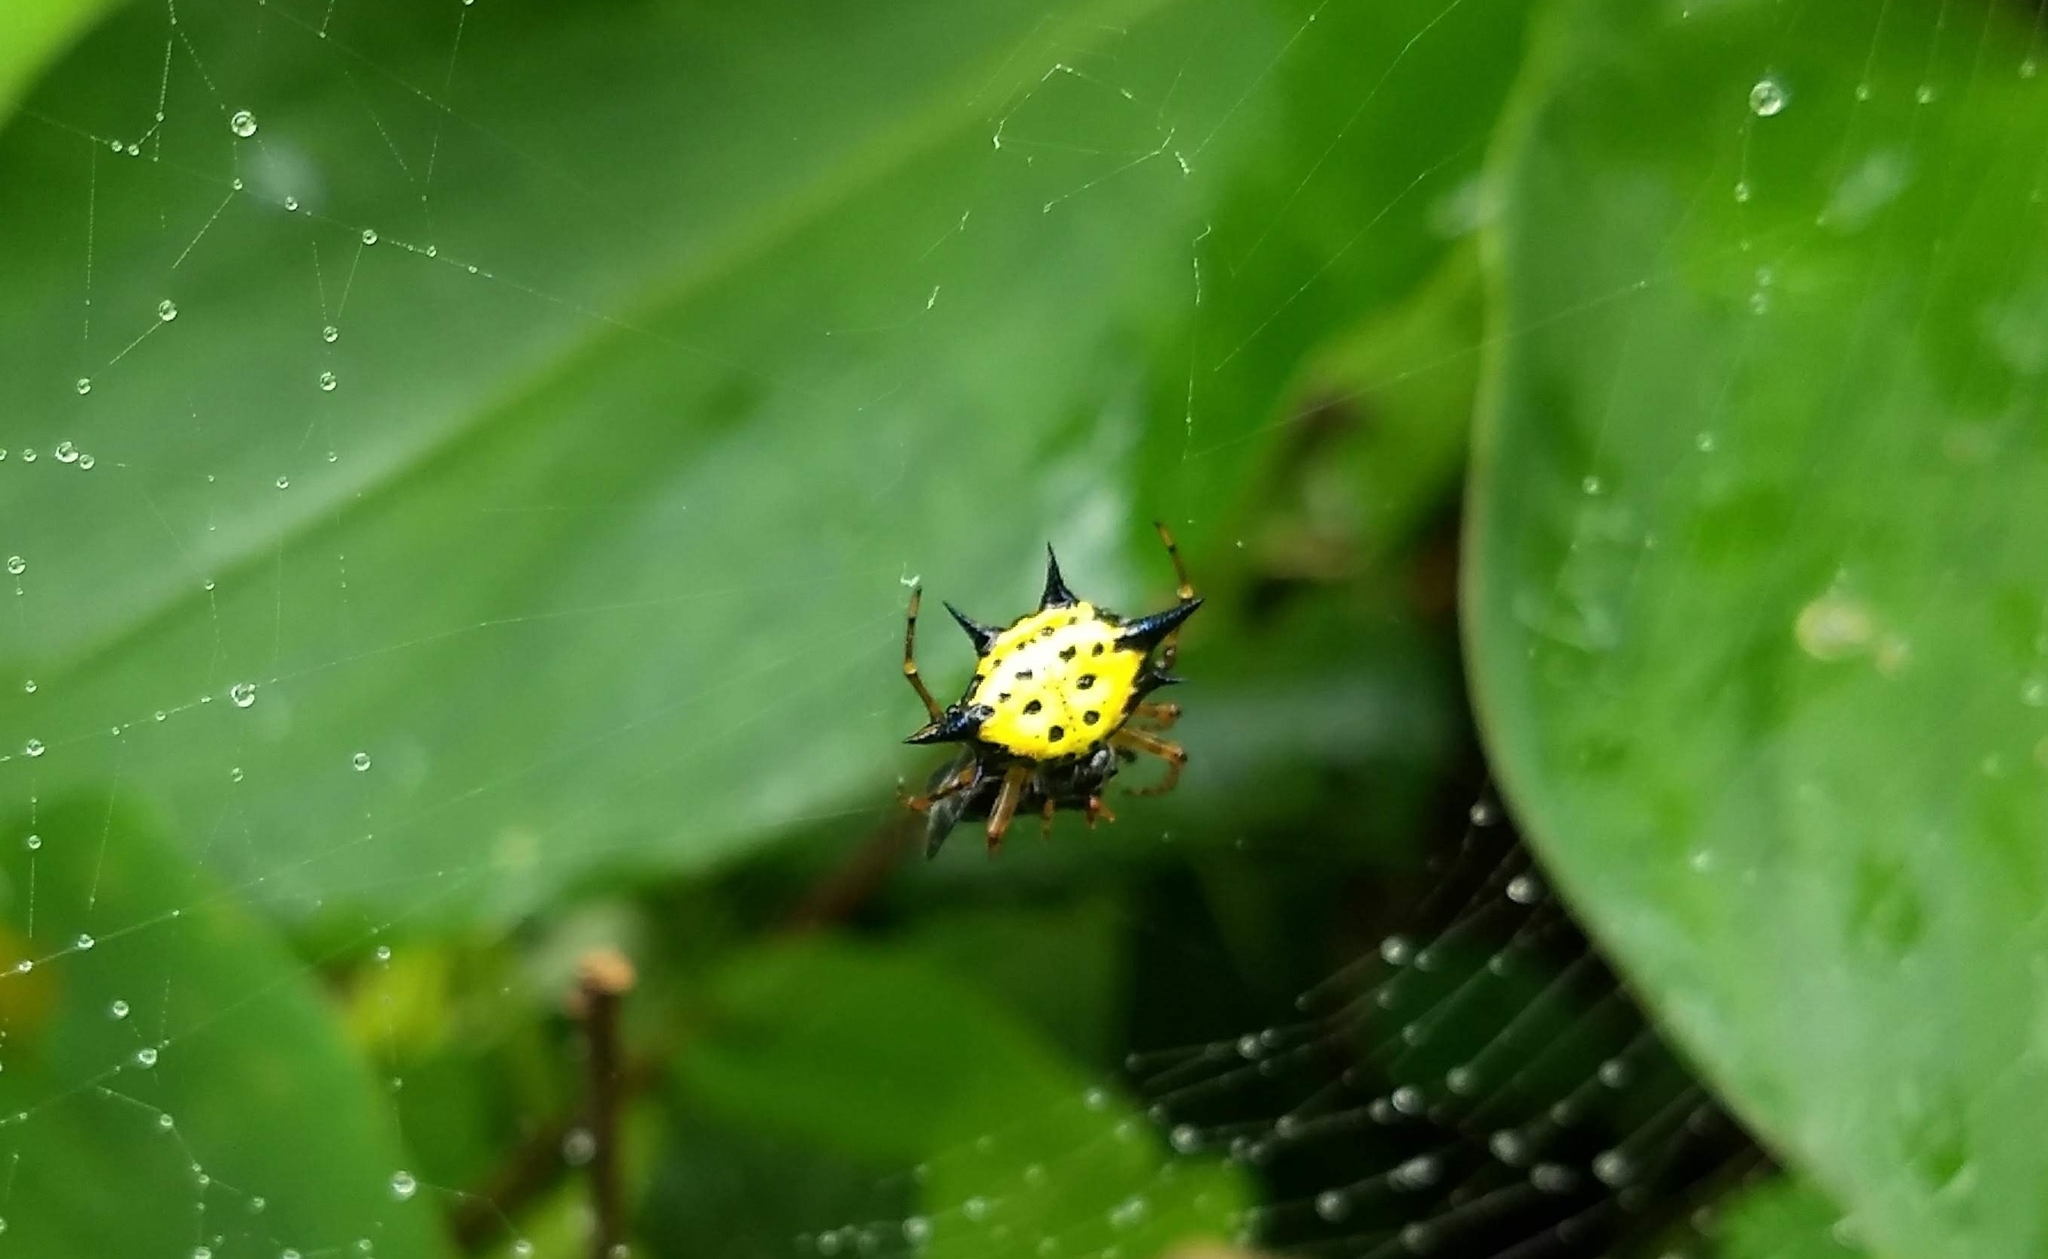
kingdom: Animalia
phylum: Arthropoda
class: Arachnida
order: Araneae
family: Araneidae
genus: Macracantha
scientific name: Macracantha hasselti
